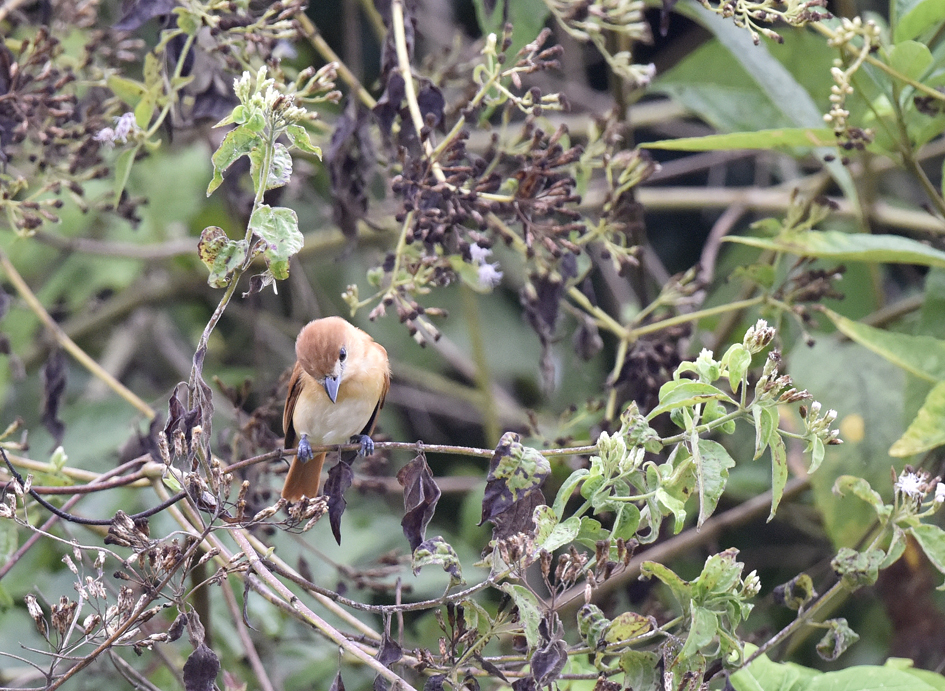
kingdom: Animalia
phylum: Chordata
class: Aves
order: Passeriformes
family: Cotingidae
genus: Pachyramphus
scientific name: Pachyramphus rufus
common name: Cinereous becard
